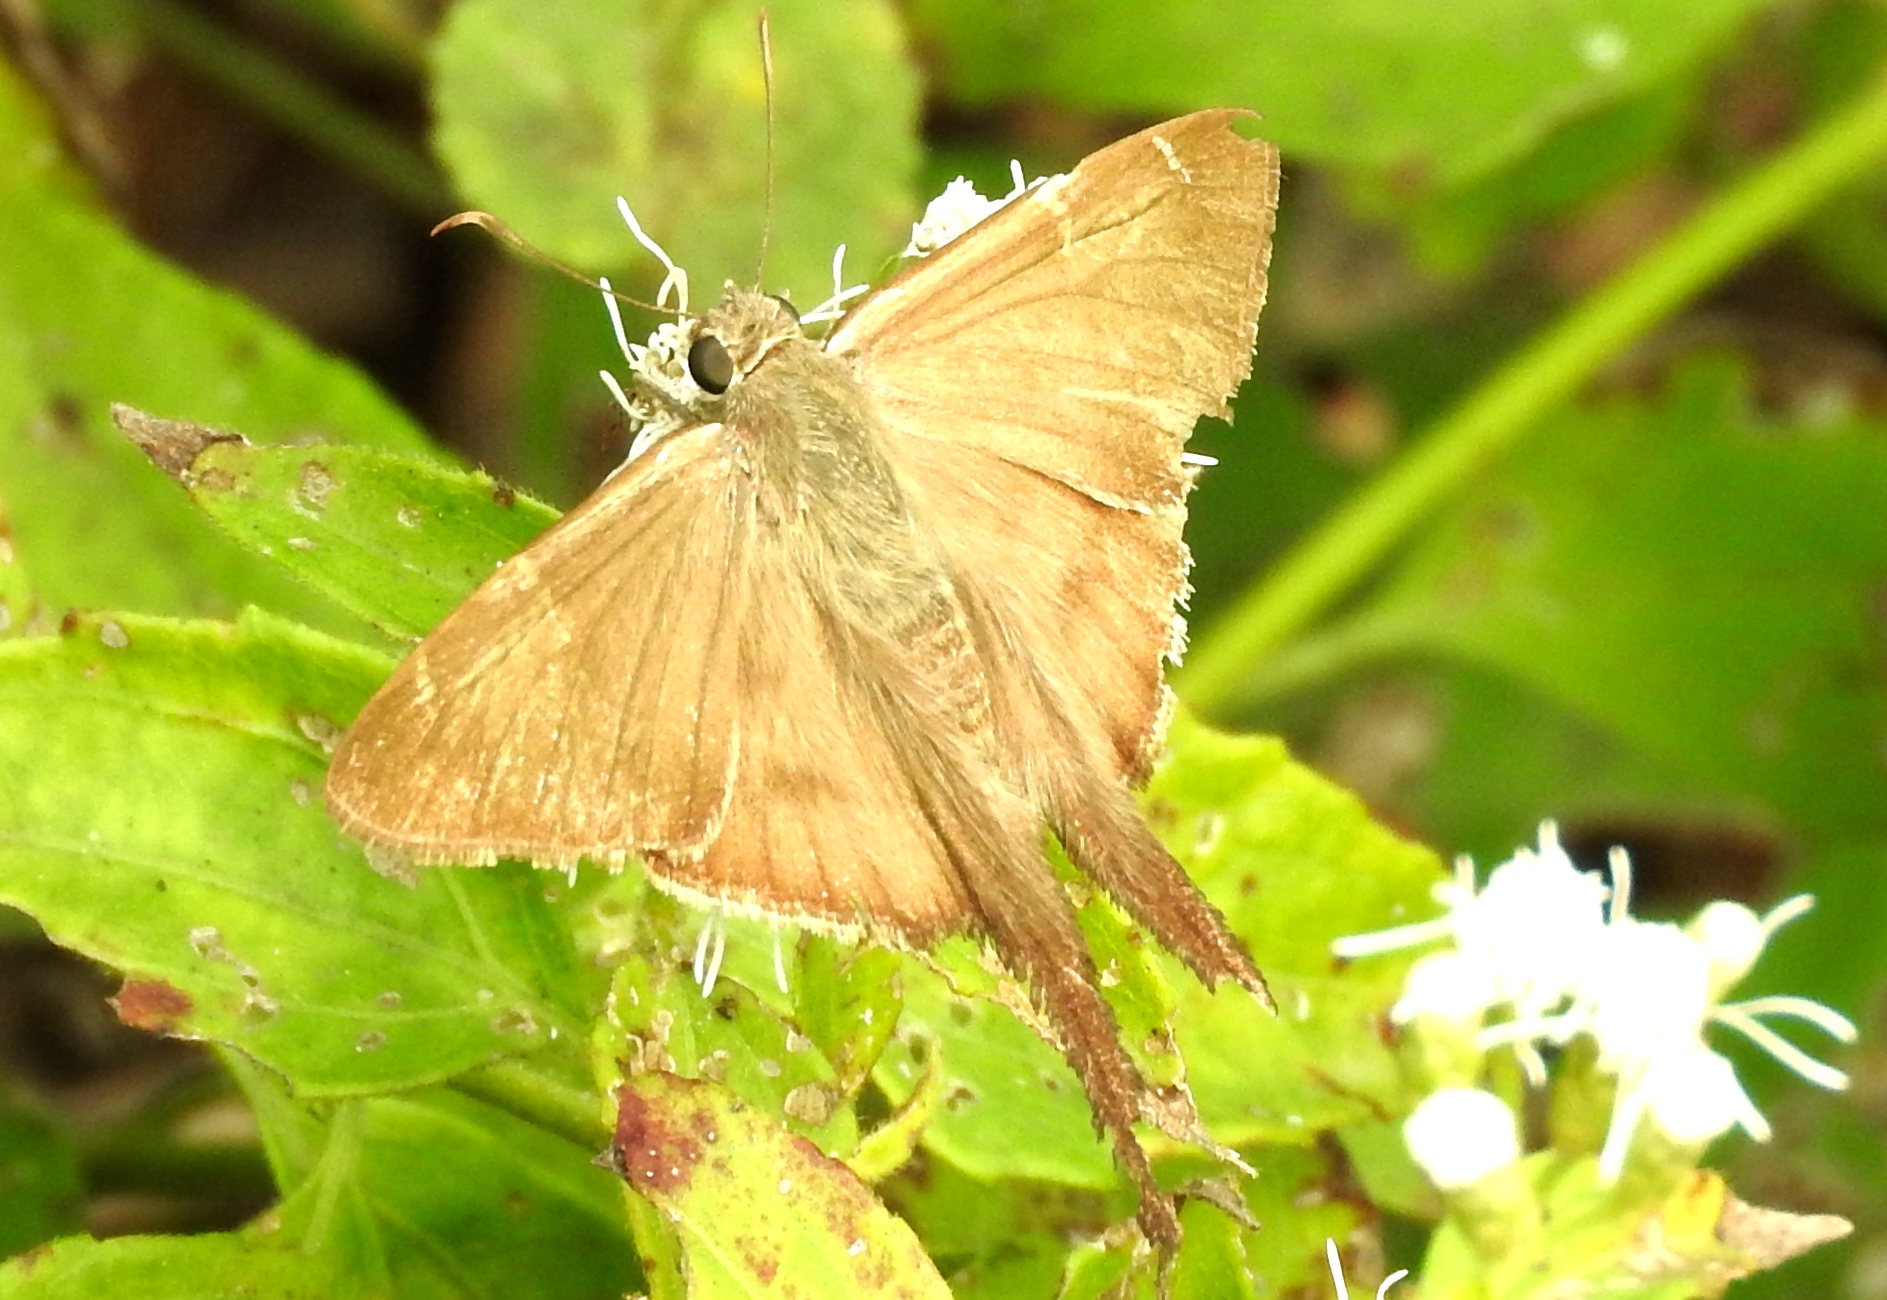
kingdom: Animalia
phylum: Arthropoda
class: Insecta
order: Lepidoptera
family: Hesperiidae
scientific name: Hesperiidae
